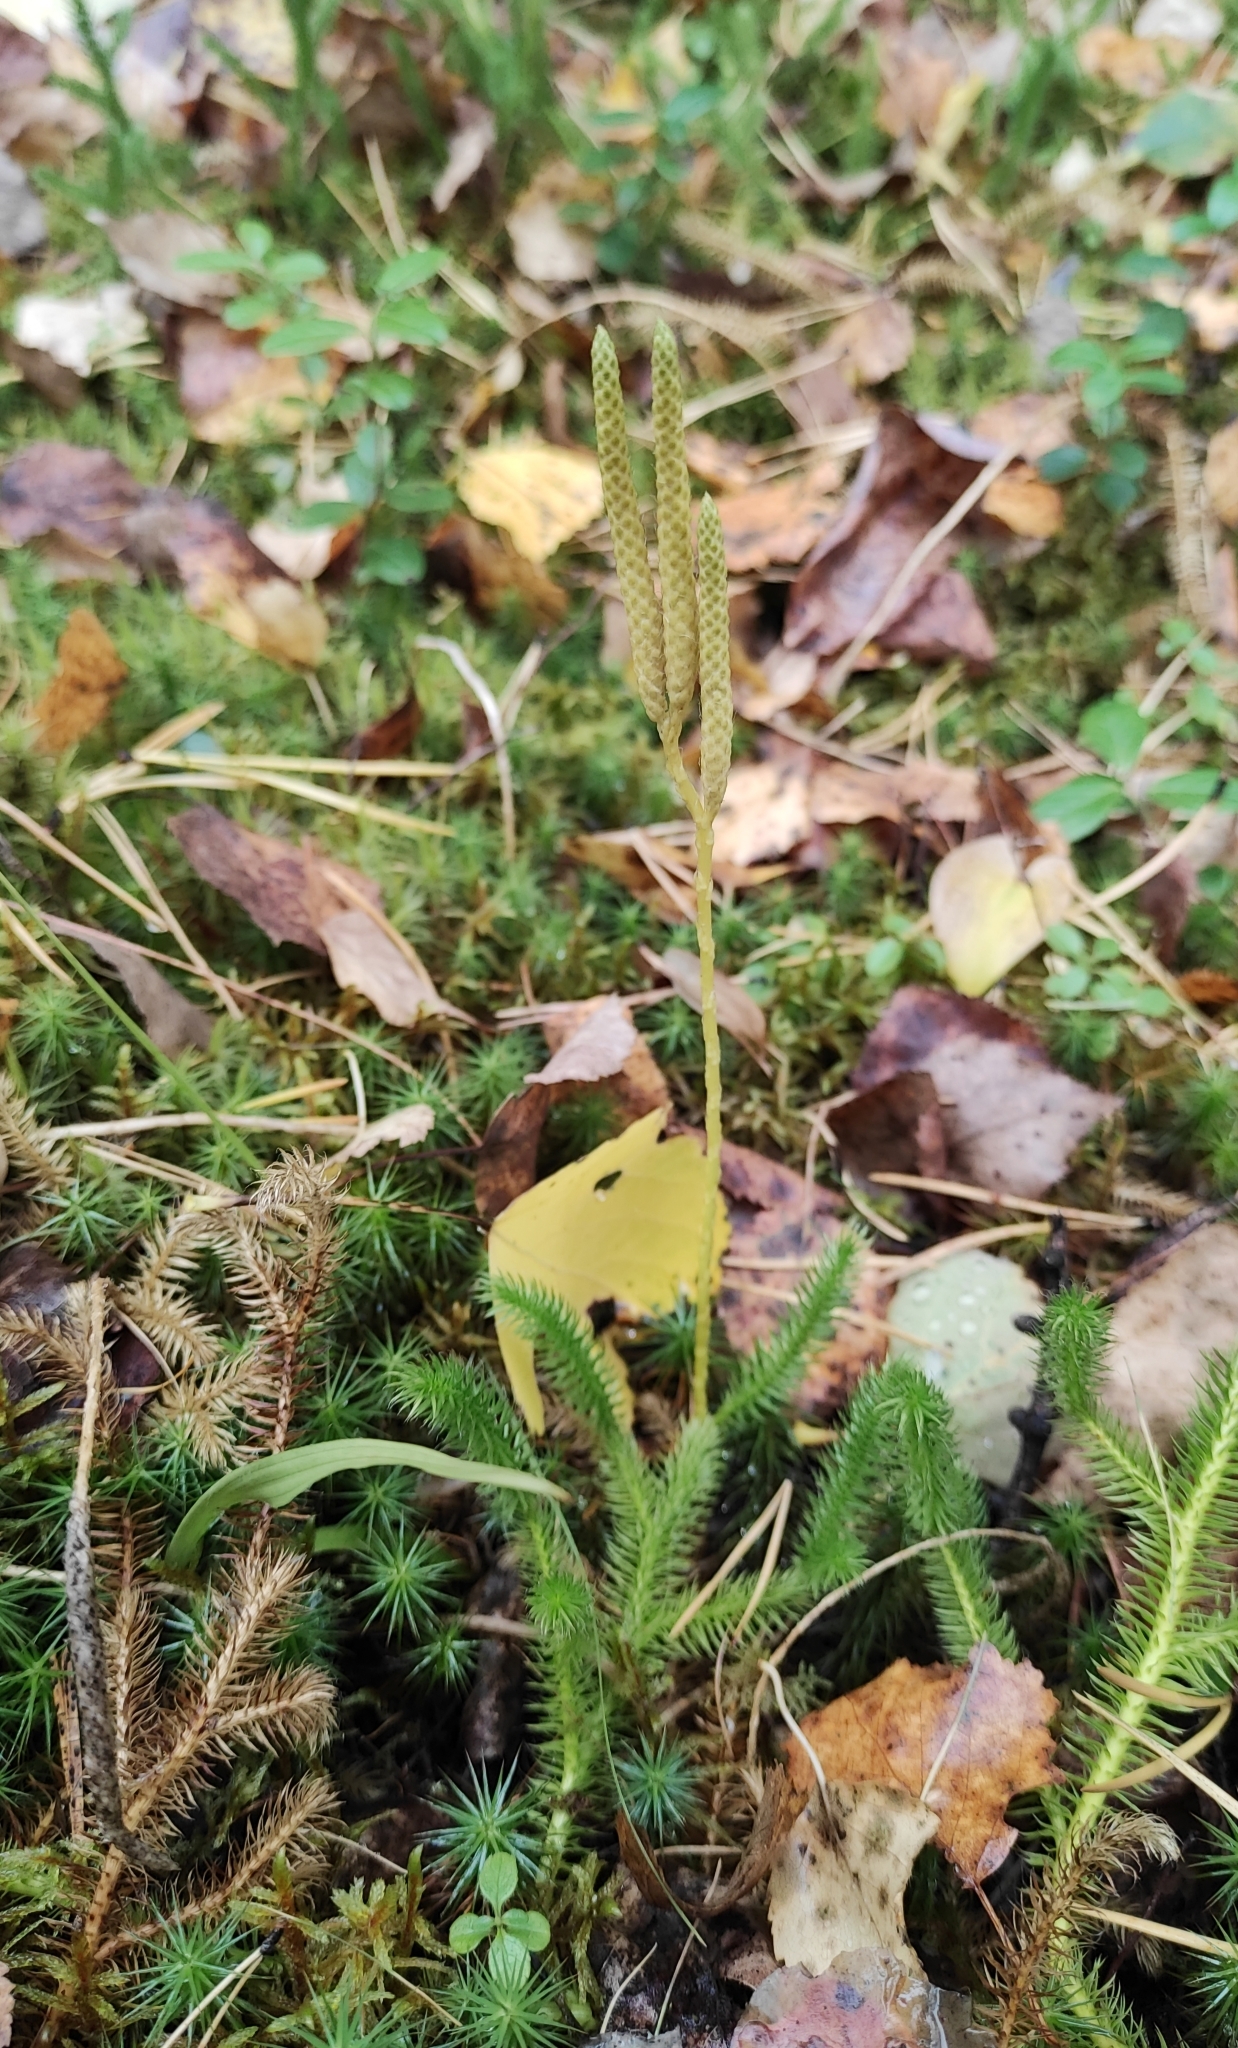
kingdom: Plantae
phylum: Tracheophyta
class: Lycopodiopsida
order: Lycopodiales
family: Lycopodiaceae
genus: Lycopodium
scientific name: Lycopodium clavatum
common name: Stag's-horn clubmoss
